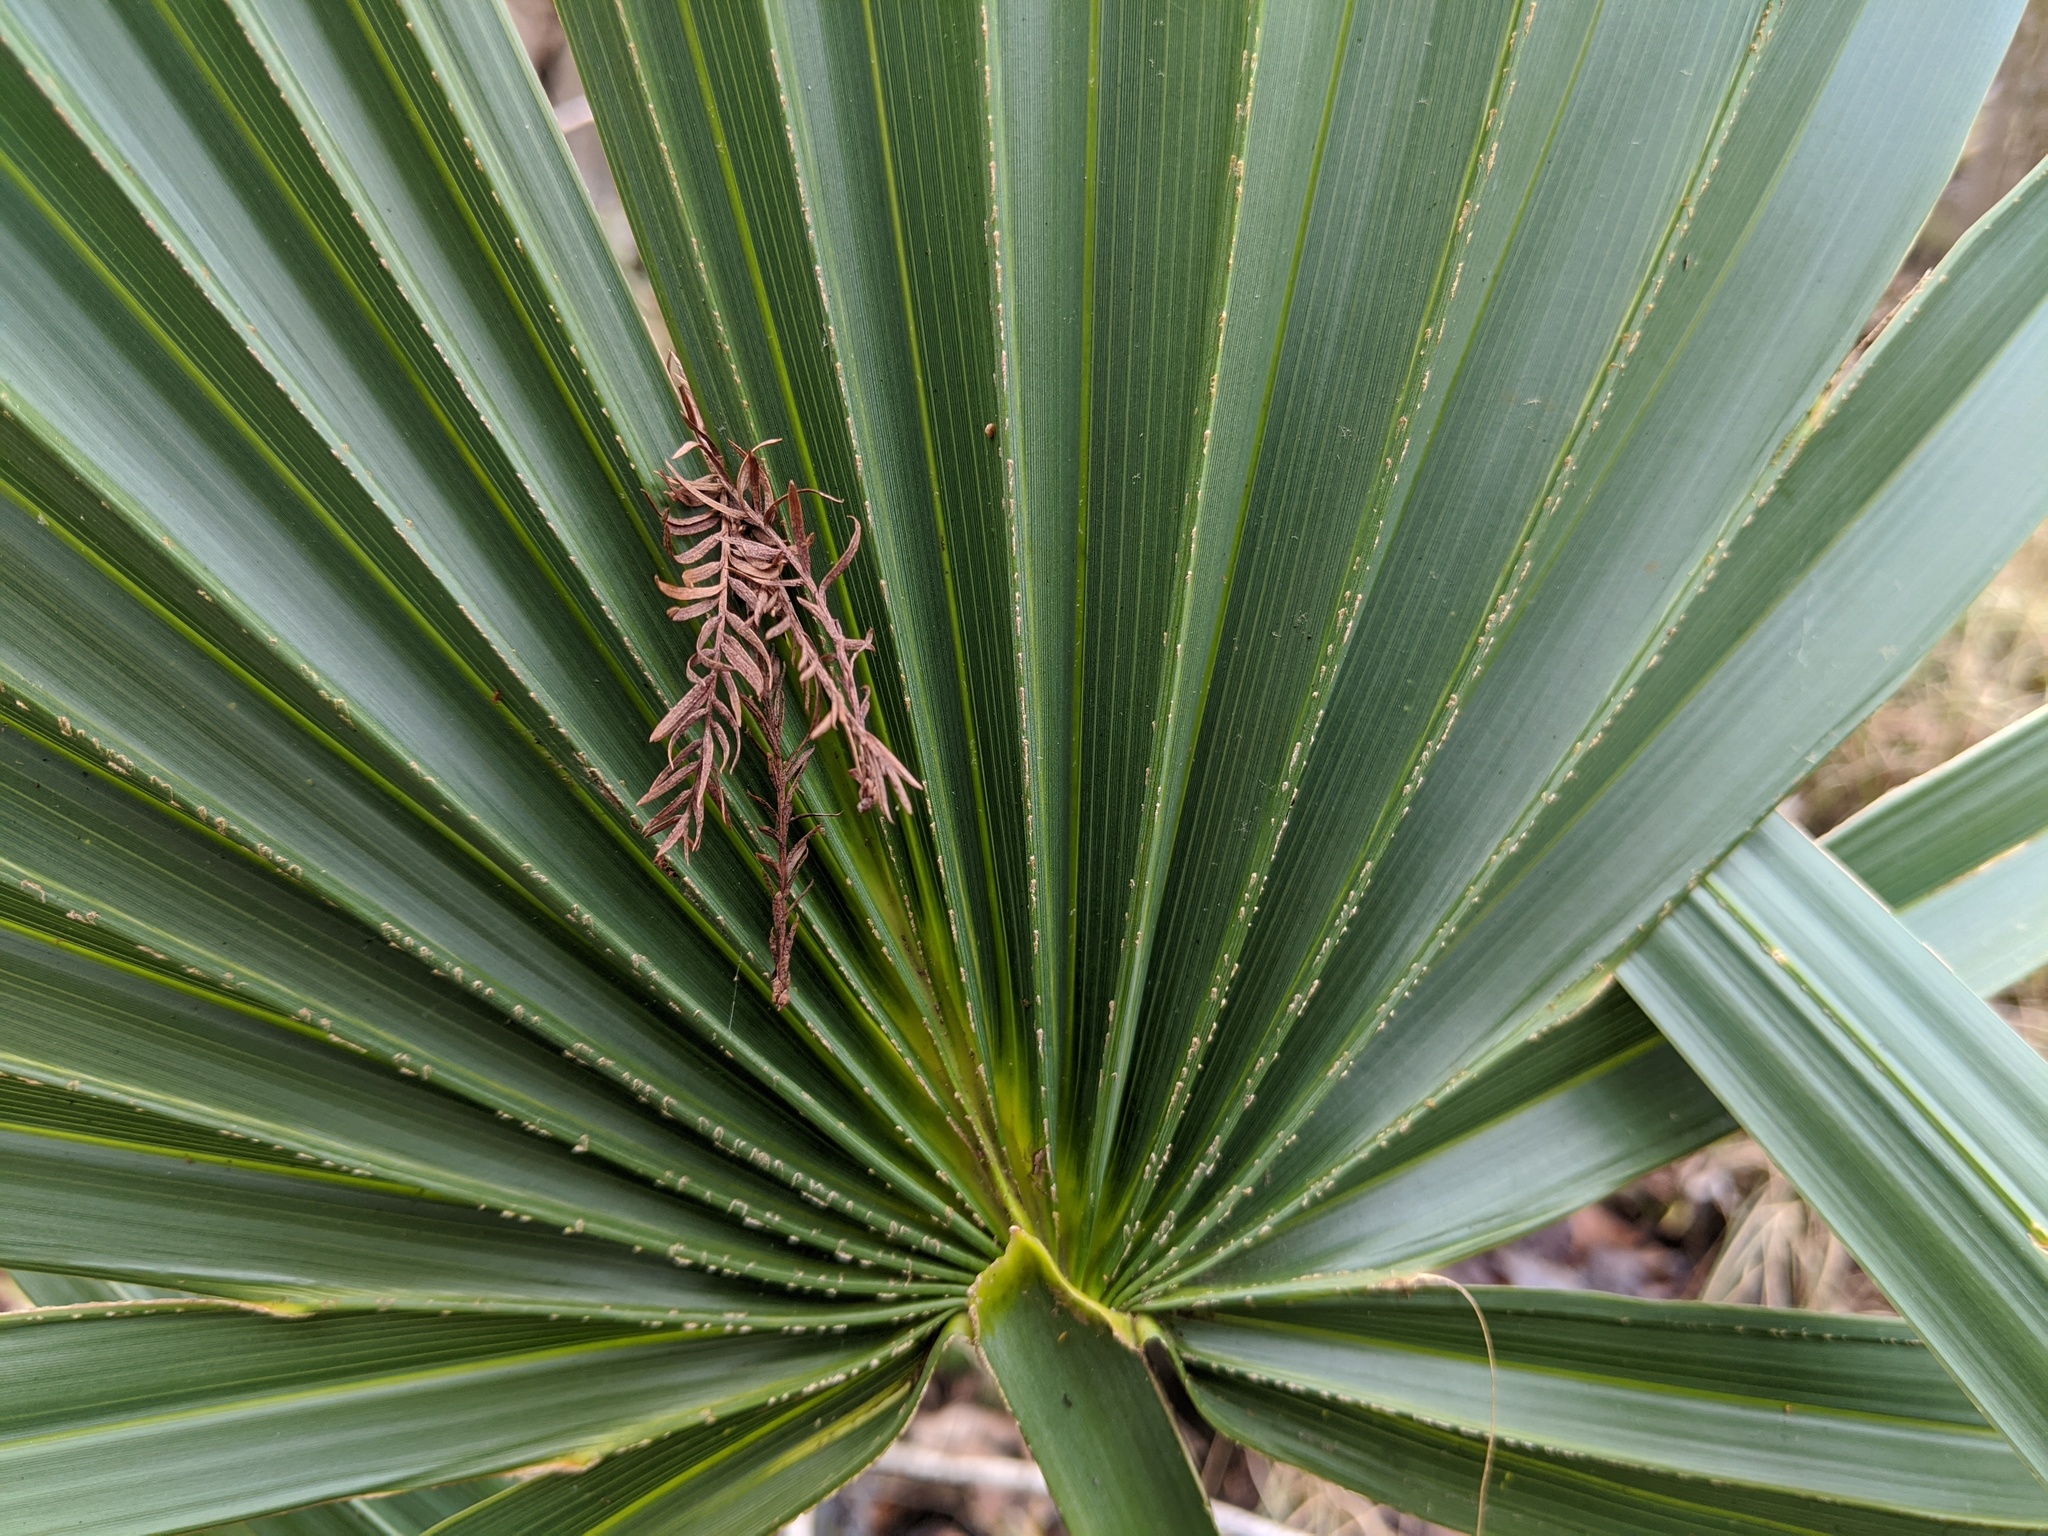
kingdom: Plantae
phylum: Tracheophyta
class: Liliopsida
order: Arecales
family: Arecaceae
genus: Sabal
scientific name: Sabal minor
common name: Dwarf palmetto
